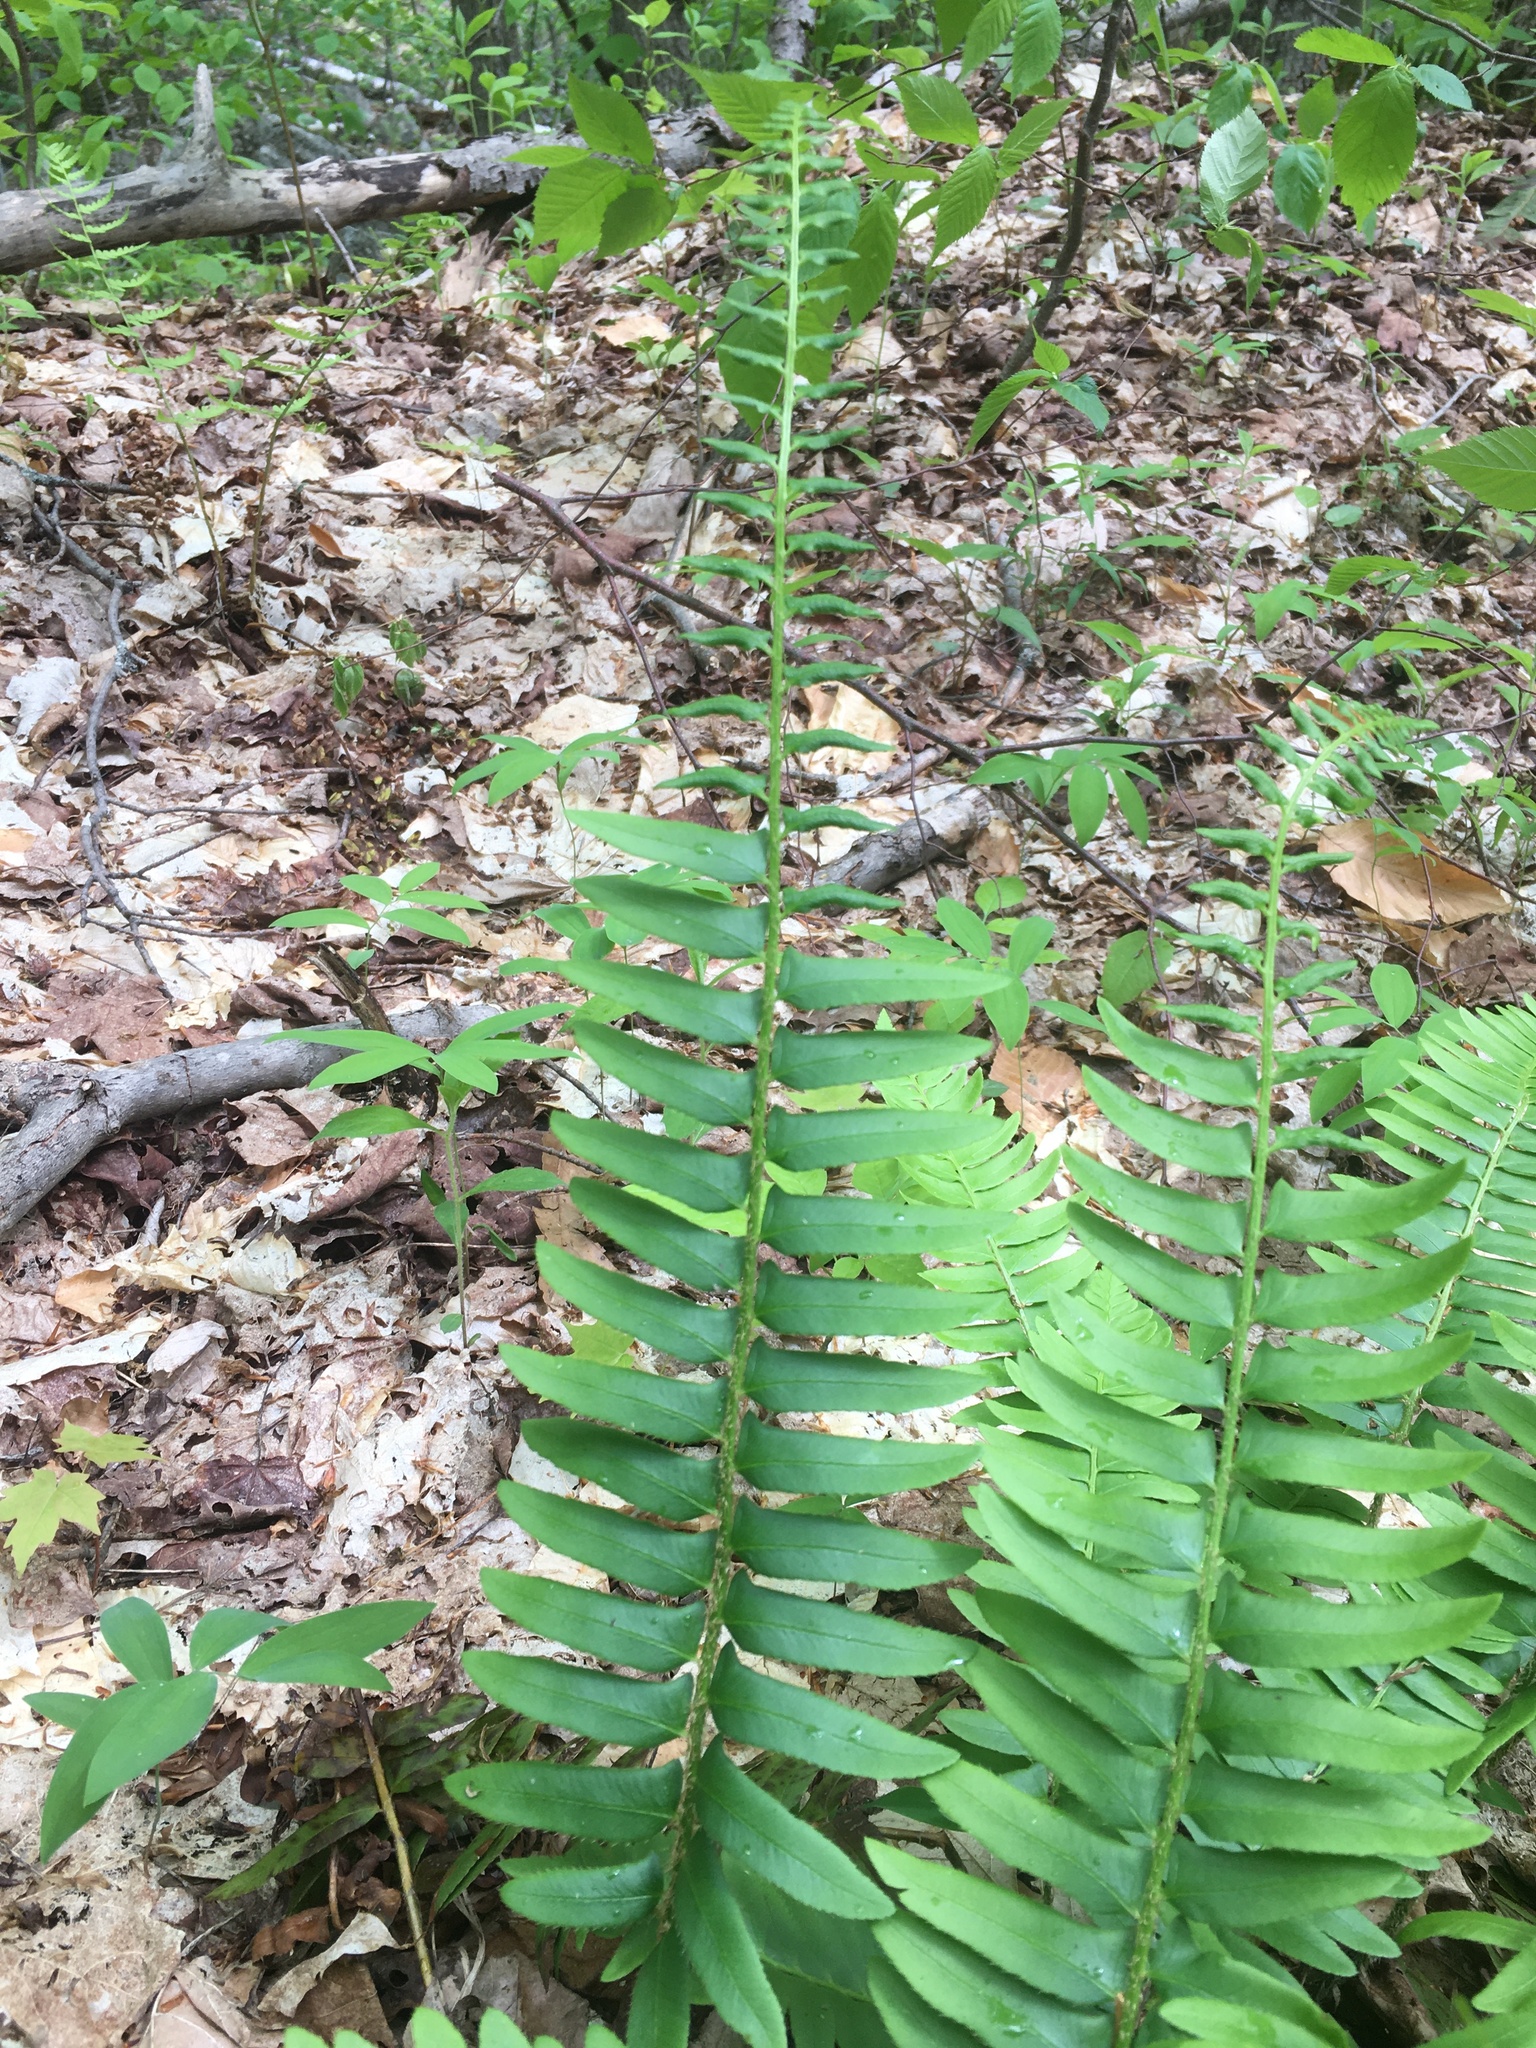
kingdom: Plantae
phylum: Tracheophyta
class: Polypodiopsida
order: Polypodiales
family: Dryopteridaceae
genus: Polystichum
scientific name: Polystichum acrostichoides
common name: Christmas fern
